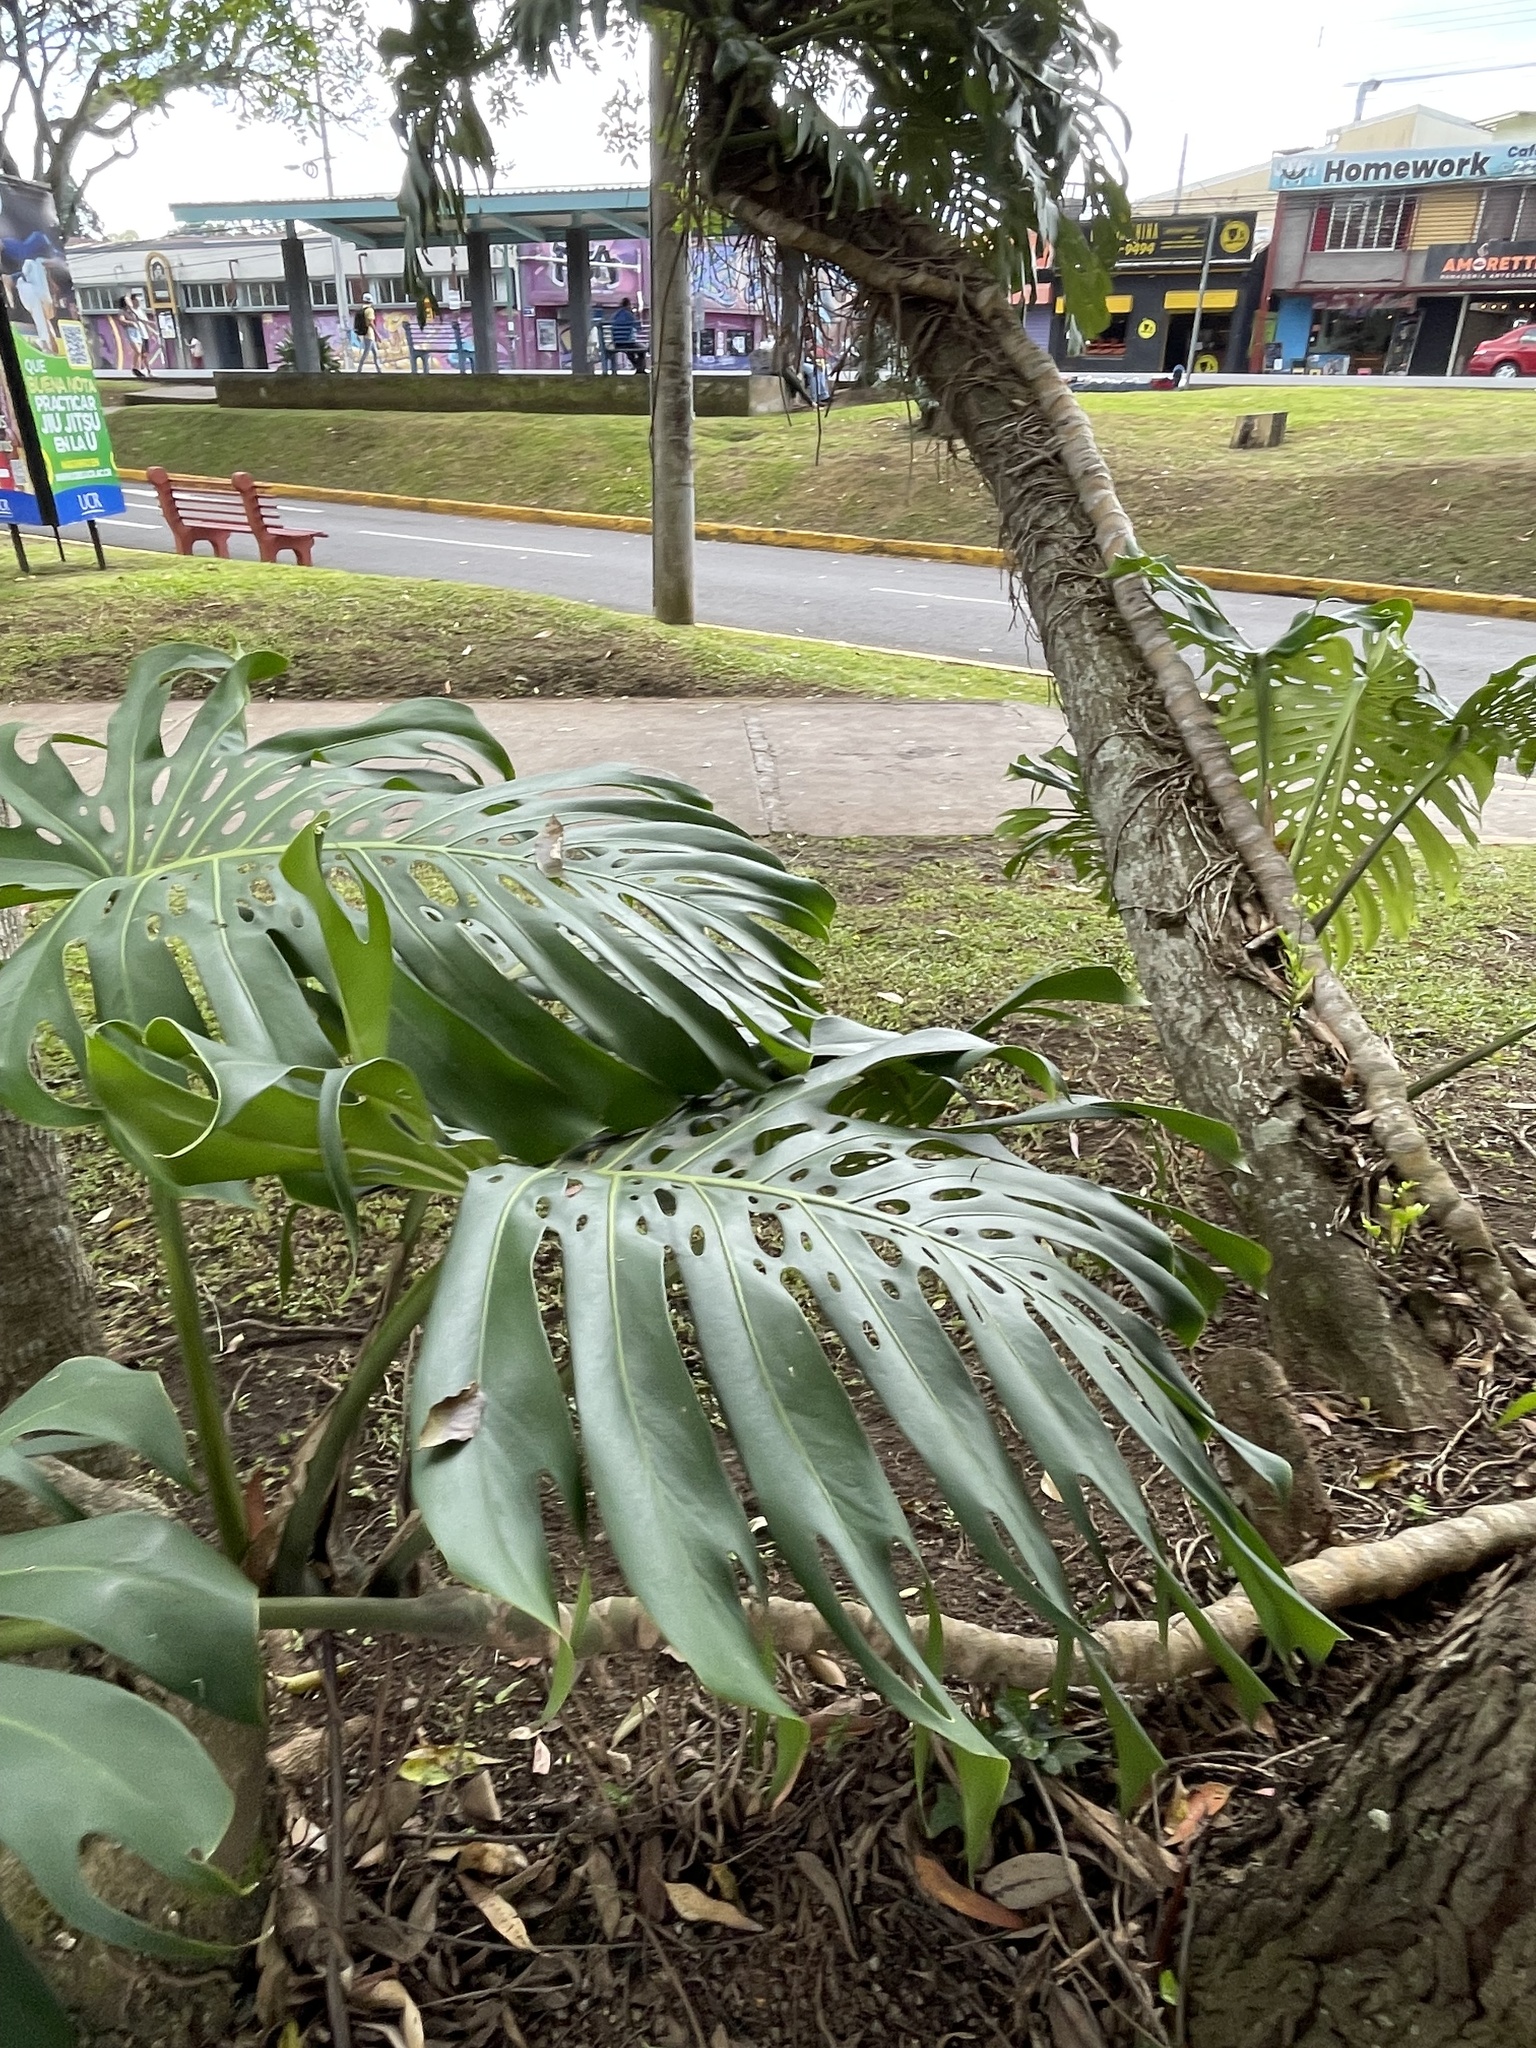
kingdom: Plantae
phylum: Tracheophyta
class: Liliopsida
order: Alismatales
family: Araceae
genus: Monstera
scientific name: Monstera deliciosa
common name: Cut-leaf-philodendron
